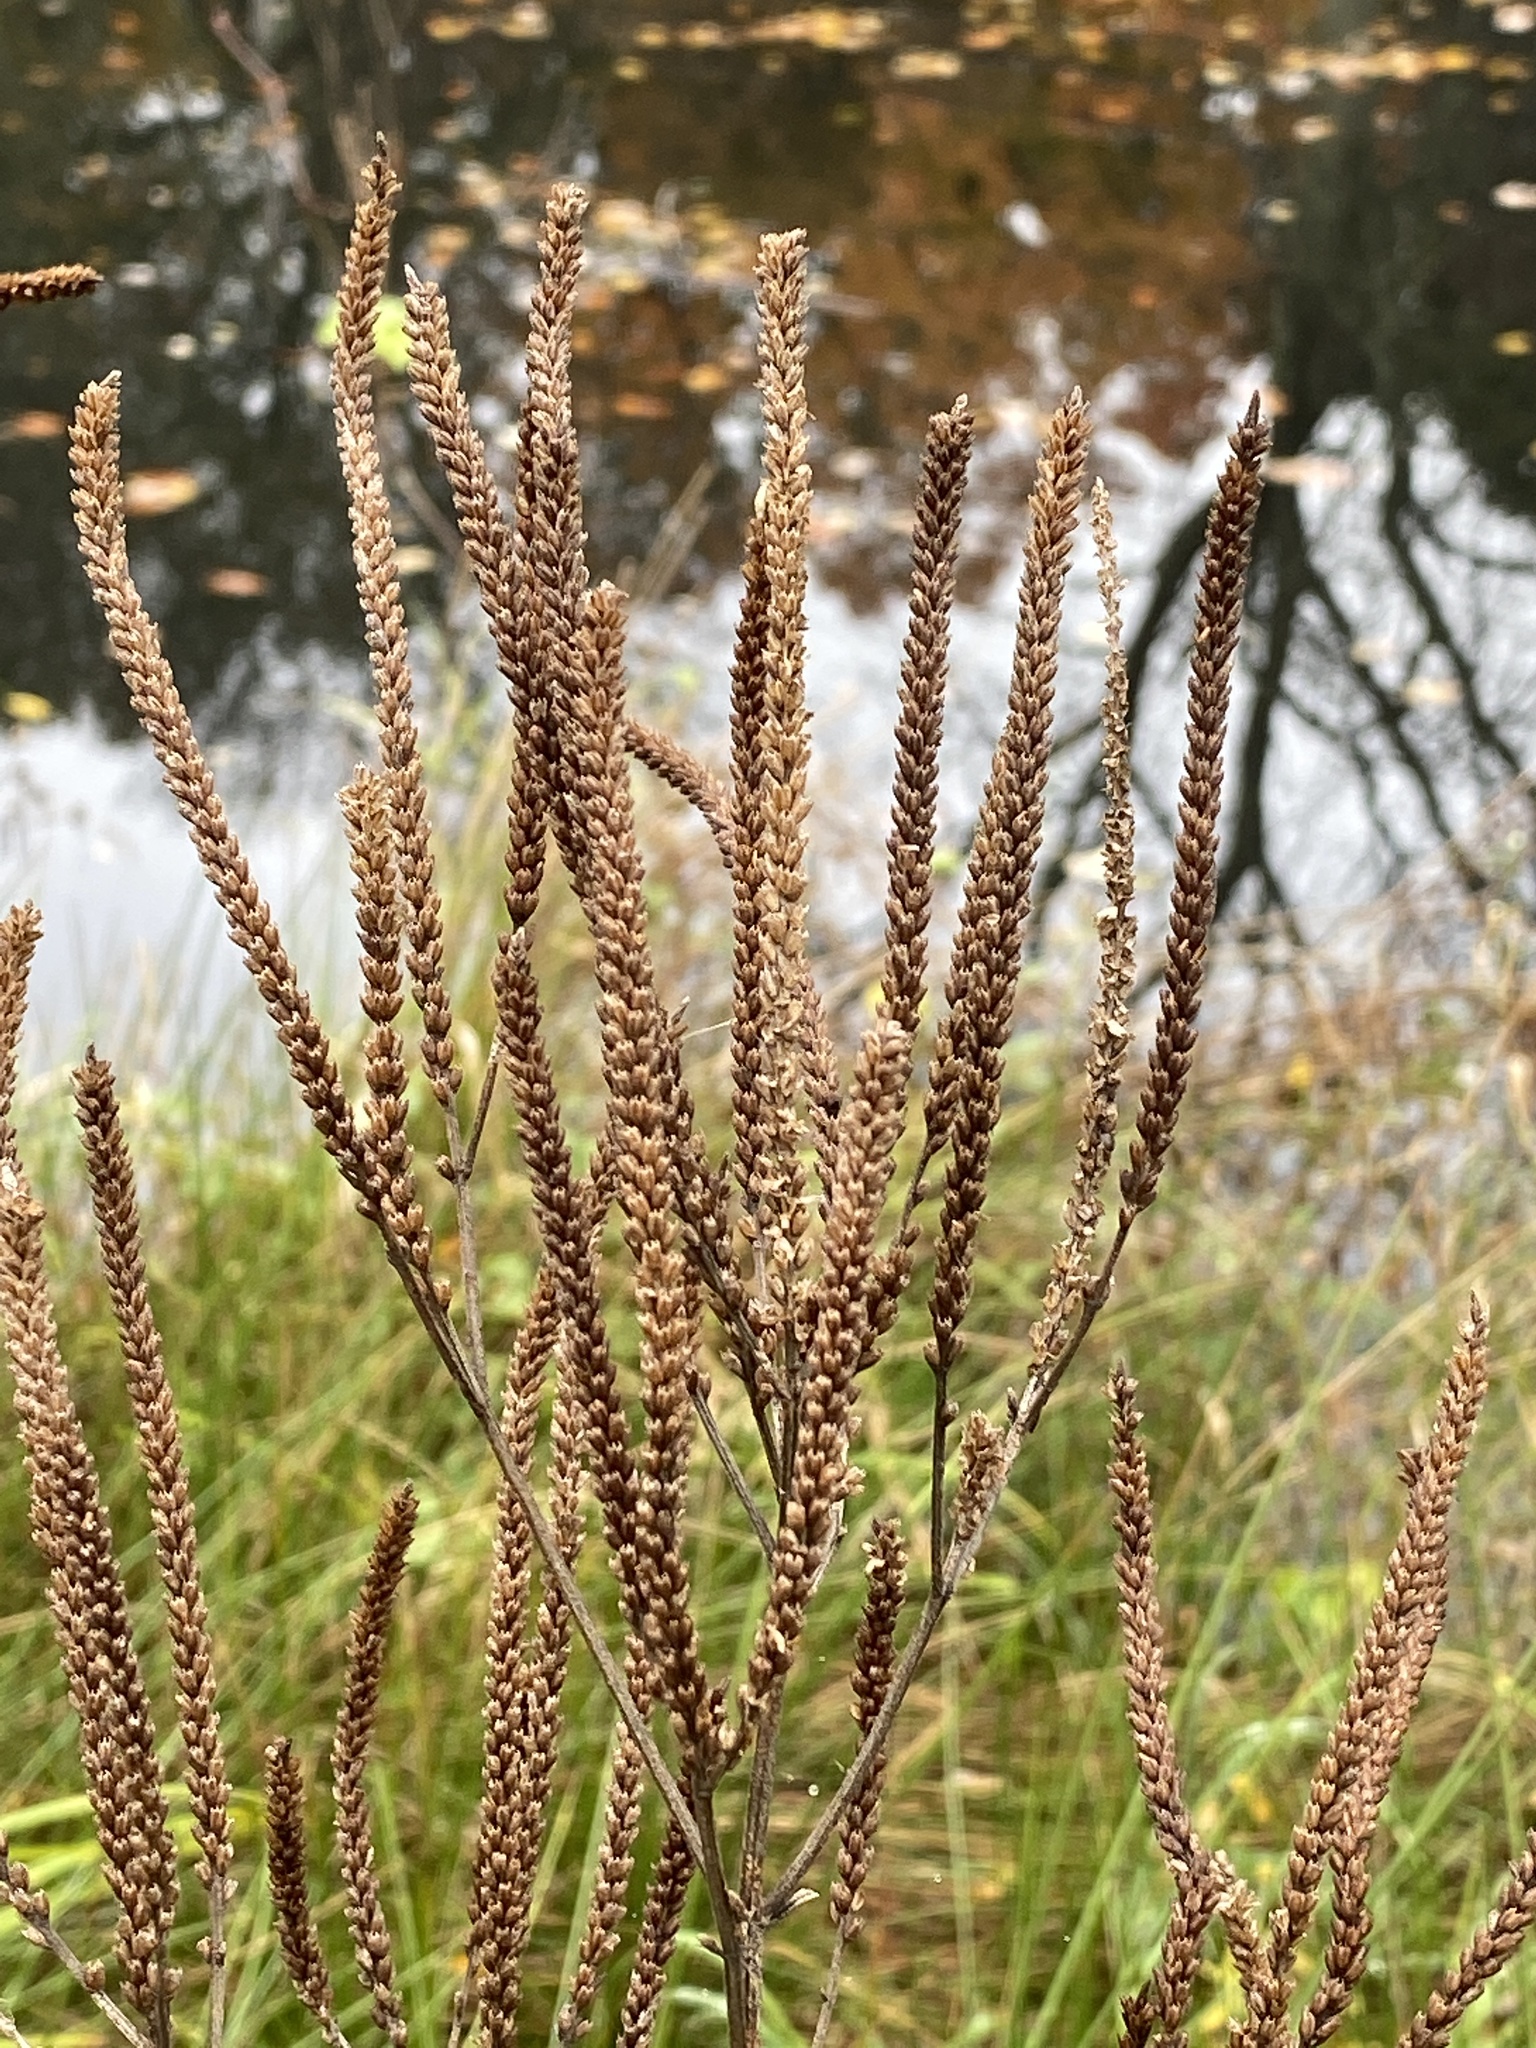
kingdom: Plantae
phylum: Tracheophyta
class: Magnoliopsida
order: Lamiales
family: Verbenaceae
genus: Verbena
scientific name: Verbena hastata
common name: American blue vervain
